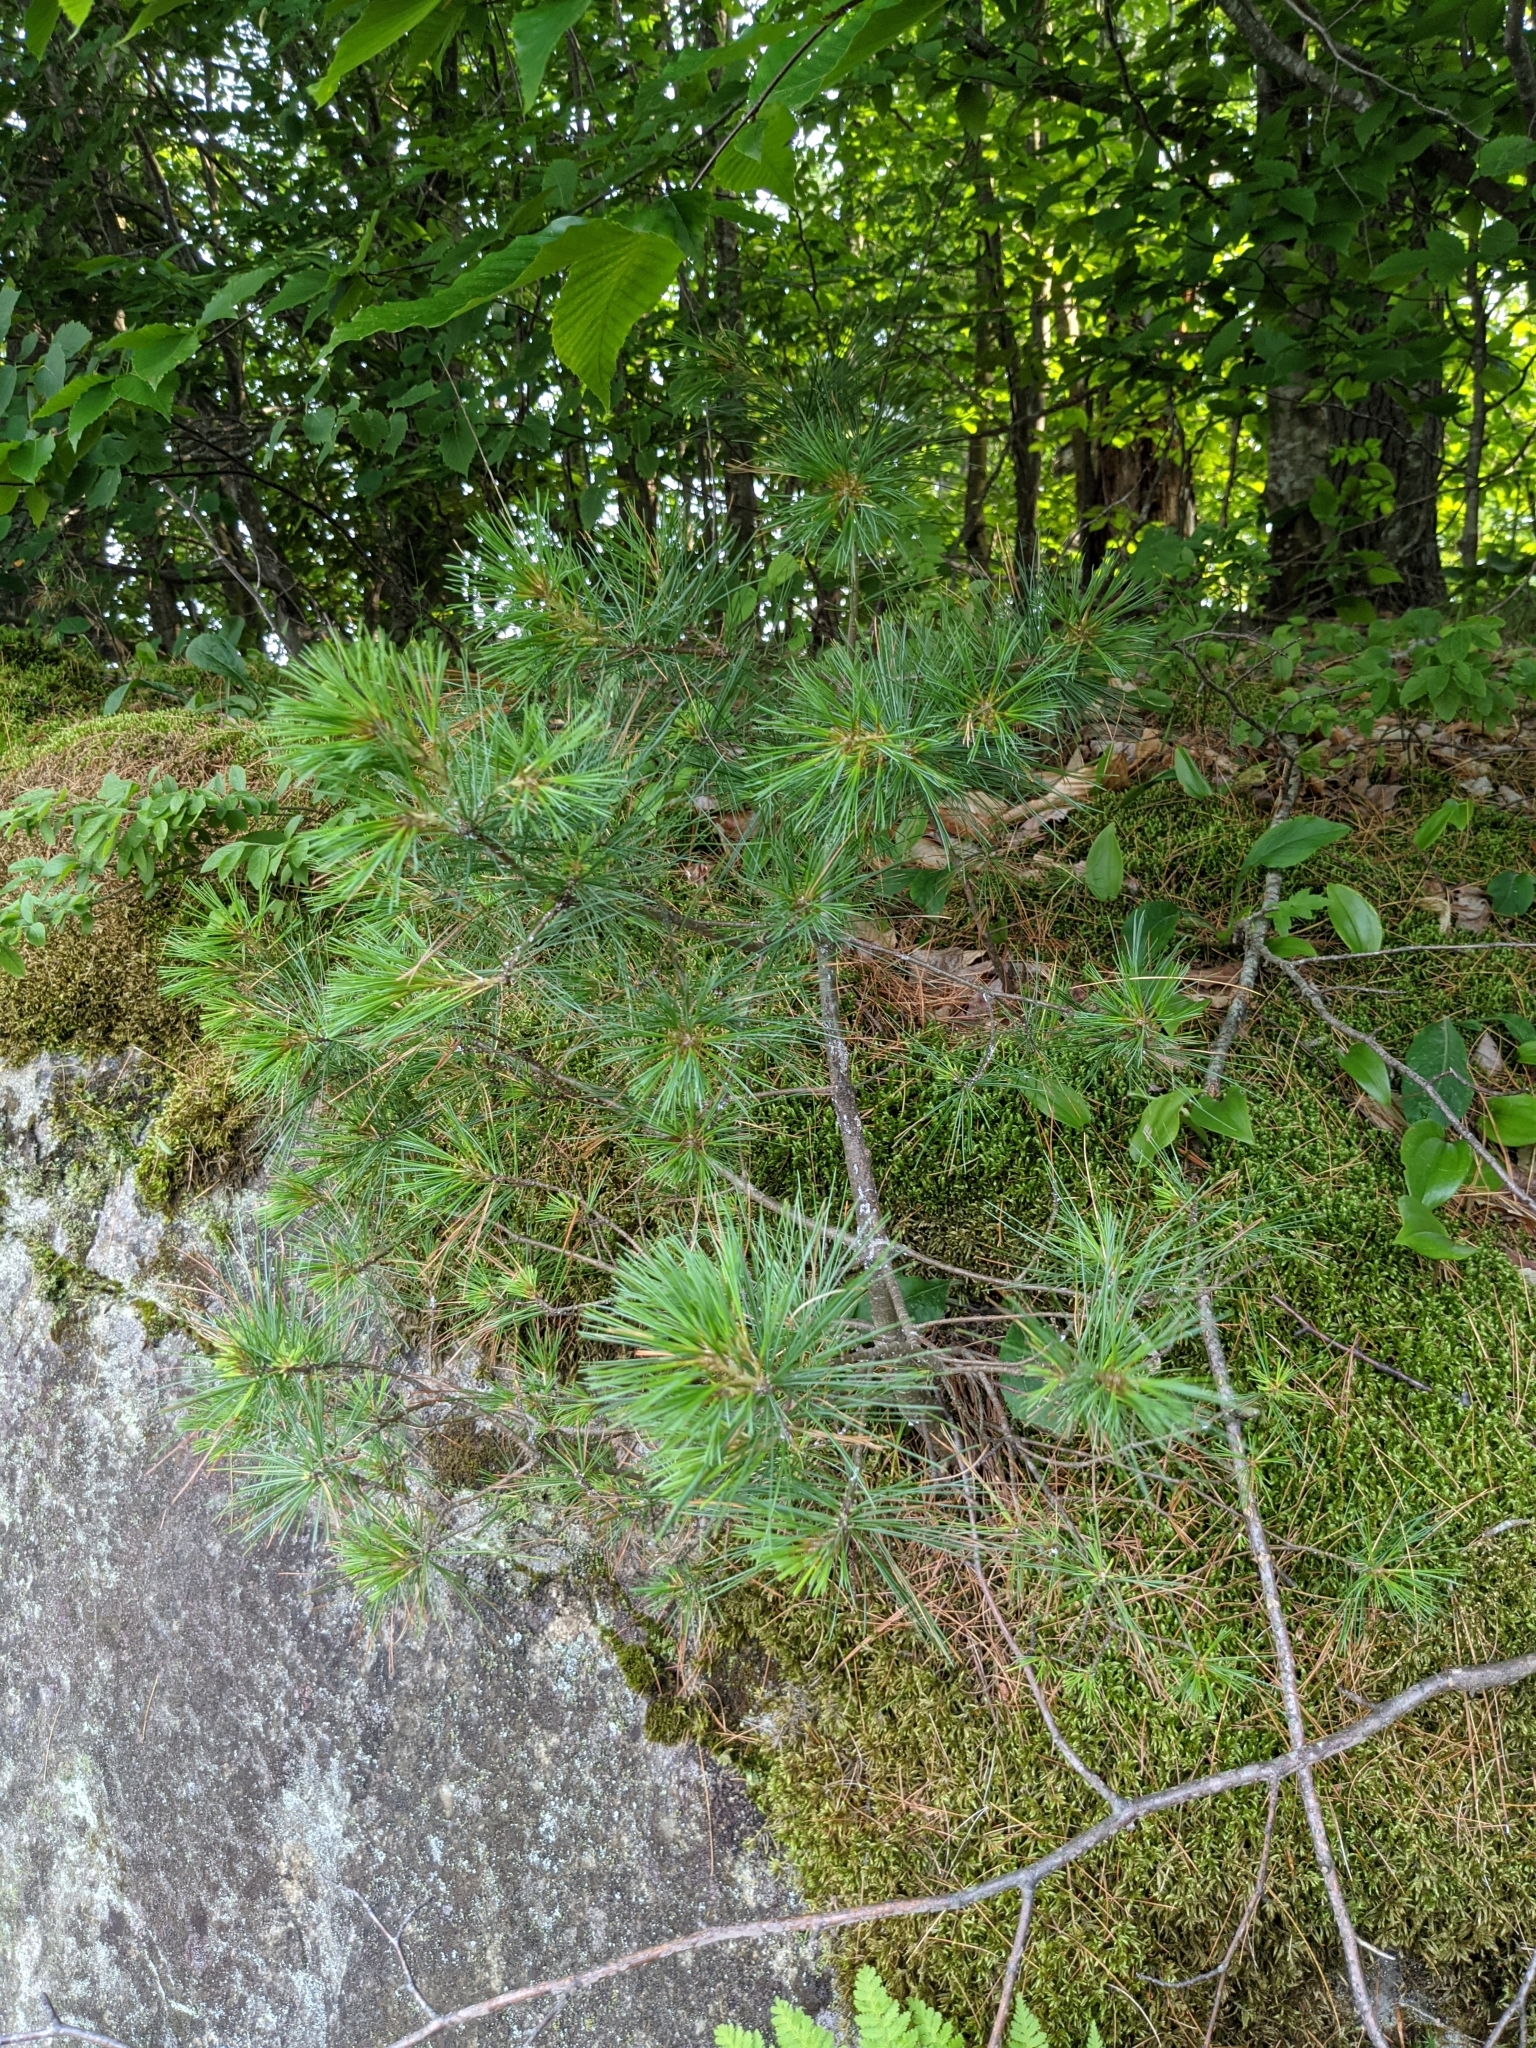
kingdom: Plantae
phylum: Tracheophyta
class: Pinopsida
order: Pinales
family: Pinaceae
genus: Pinus
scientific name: Pinus strobus
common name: Weymouth pine
